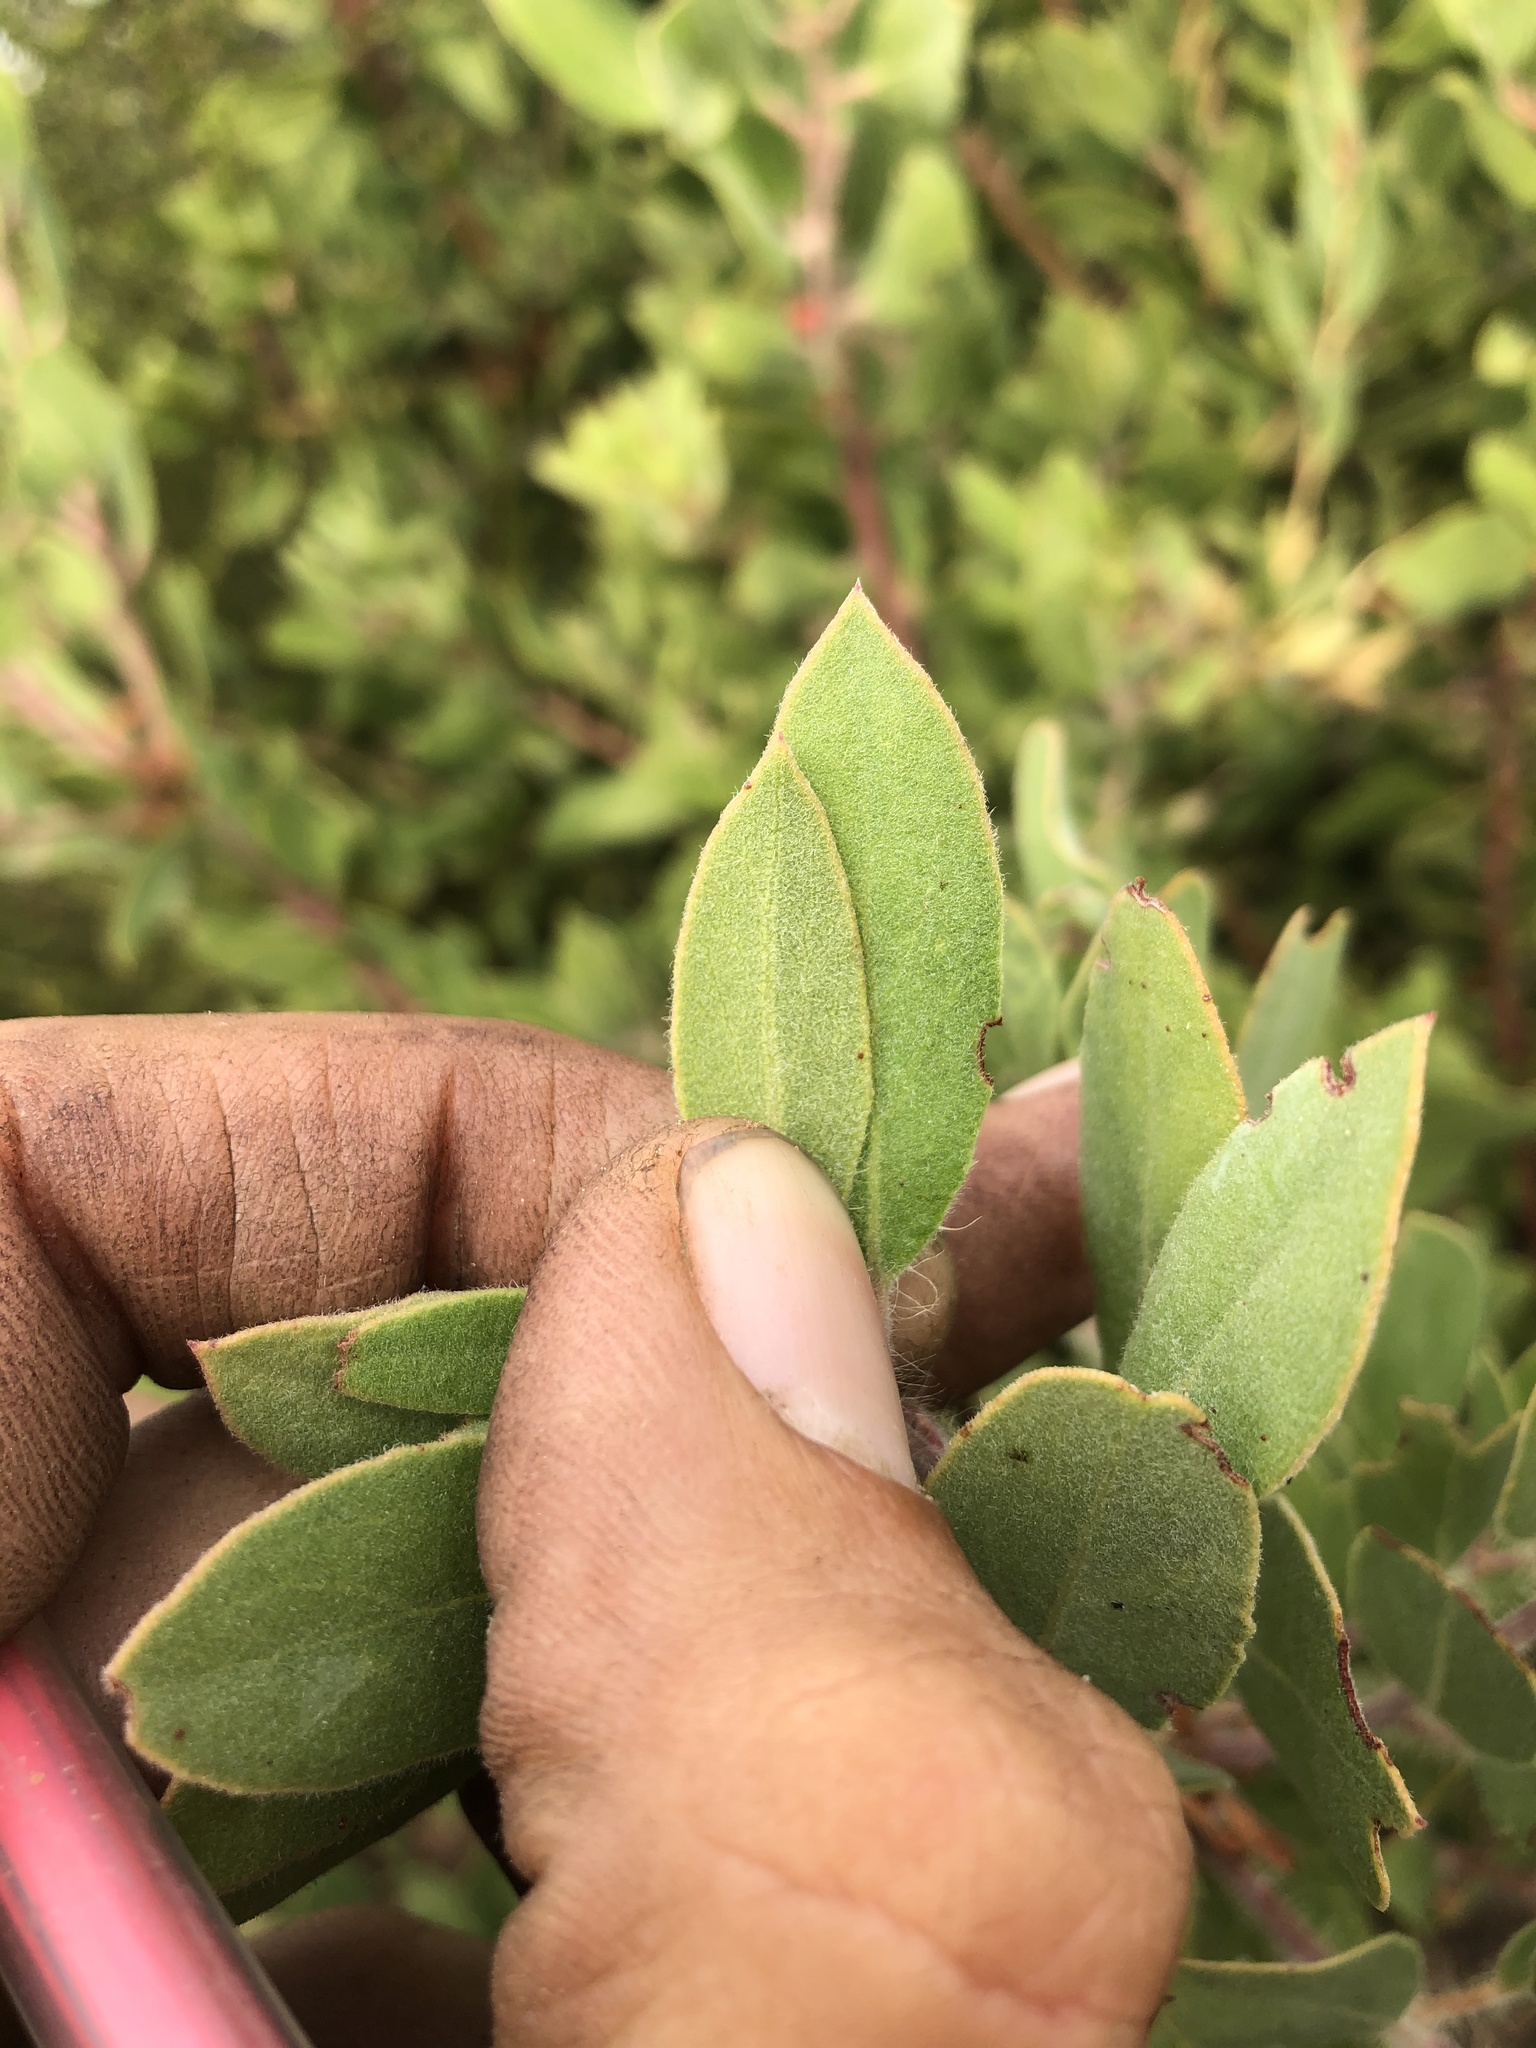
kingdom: Plantae
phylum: Tracheophyta
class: Magnoliopsida
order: Ericales
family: Ericaceae
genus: Arctostaphylos
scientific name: Arctostaphylos glandulosa
